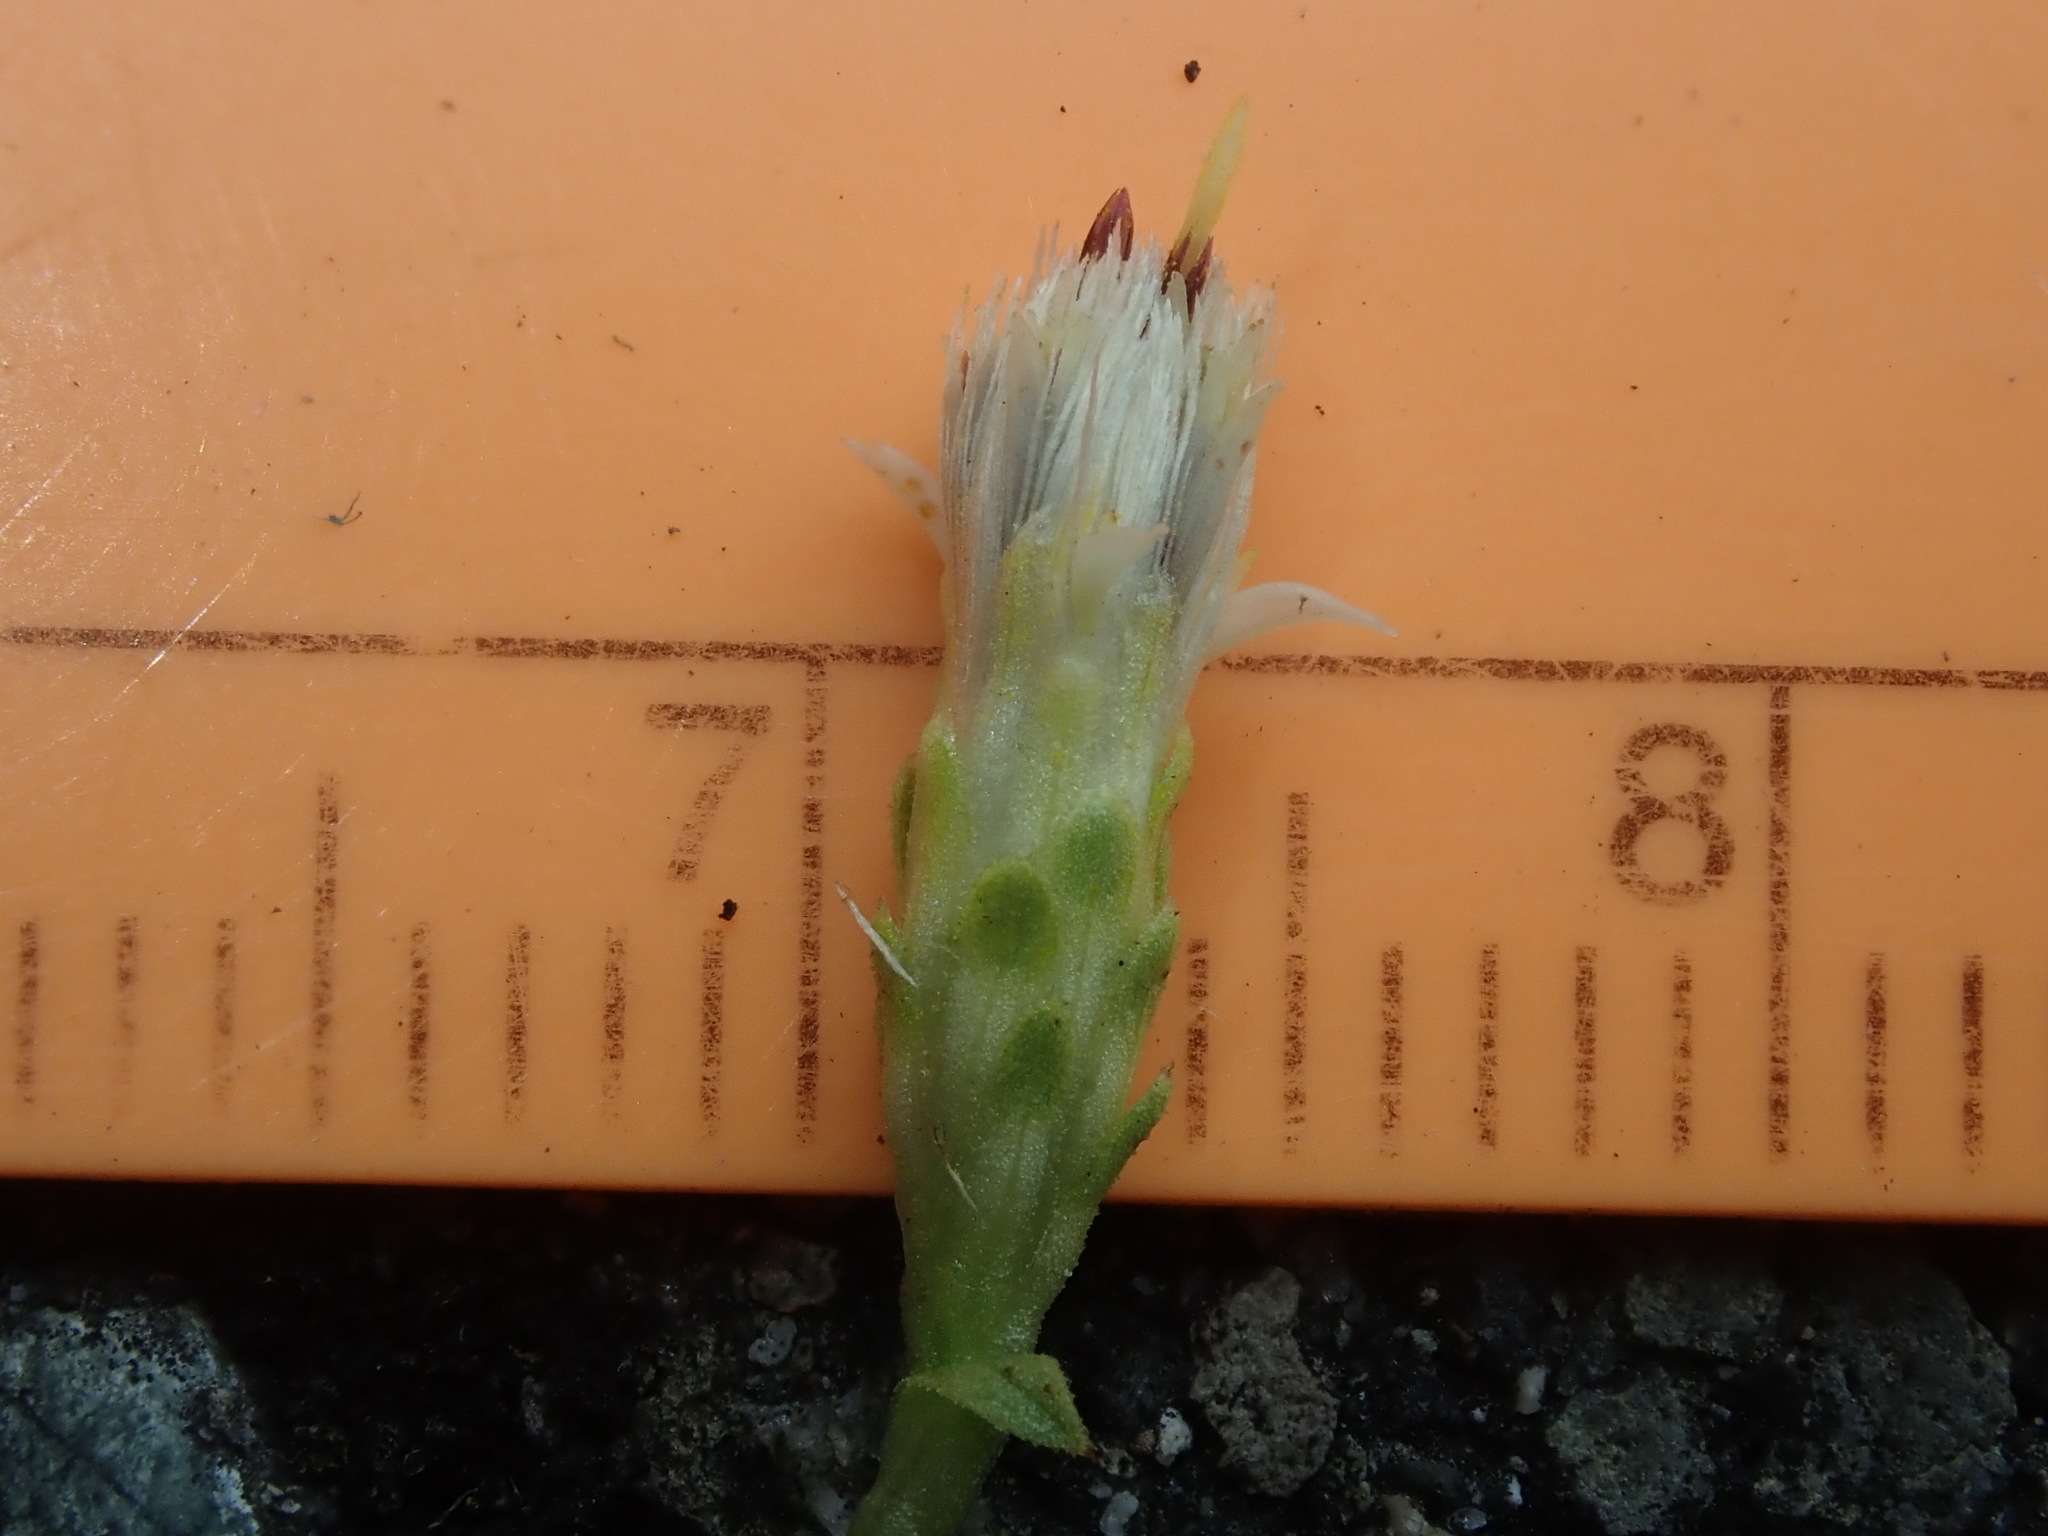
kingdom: Plantae
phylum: Tracheophyta
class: Magnoliopsida
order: Asterales
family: Asteraceae
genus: Sericocarpus
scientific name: Sericocarpus rigidus
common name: Columbia white-top aster
